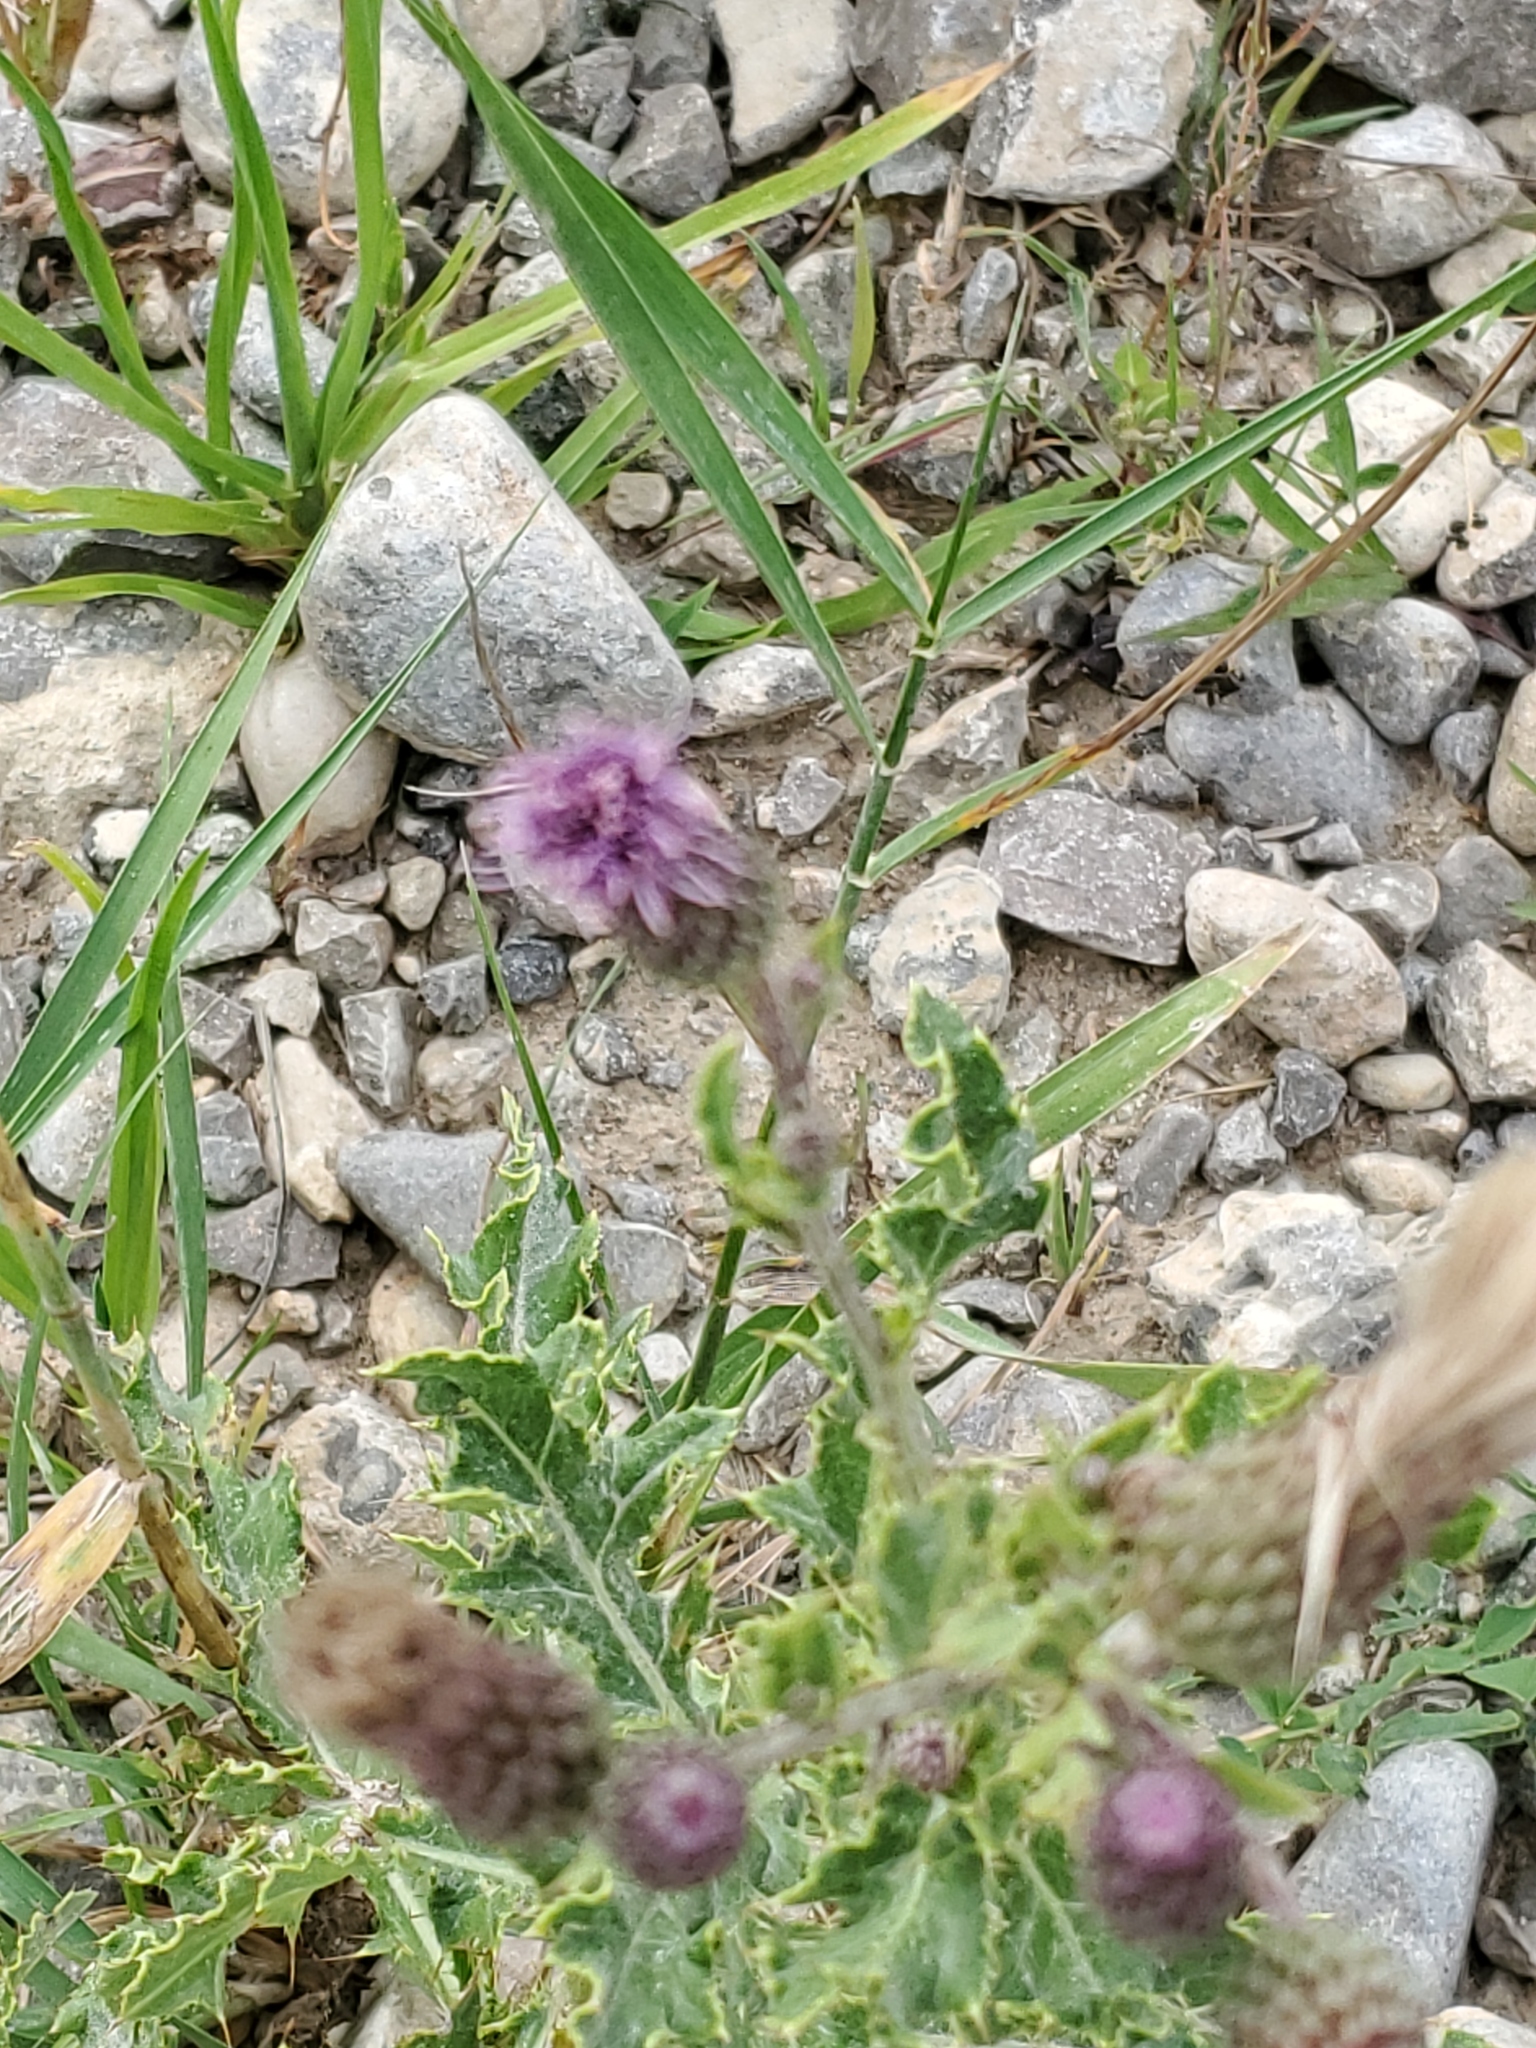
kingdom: Plantae
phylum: Tracheophyta
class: Magnoliopsida
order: Asterales
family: Asteraceae
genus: Cirsium
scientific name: Cirsium arvense
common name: Creeping thistle
